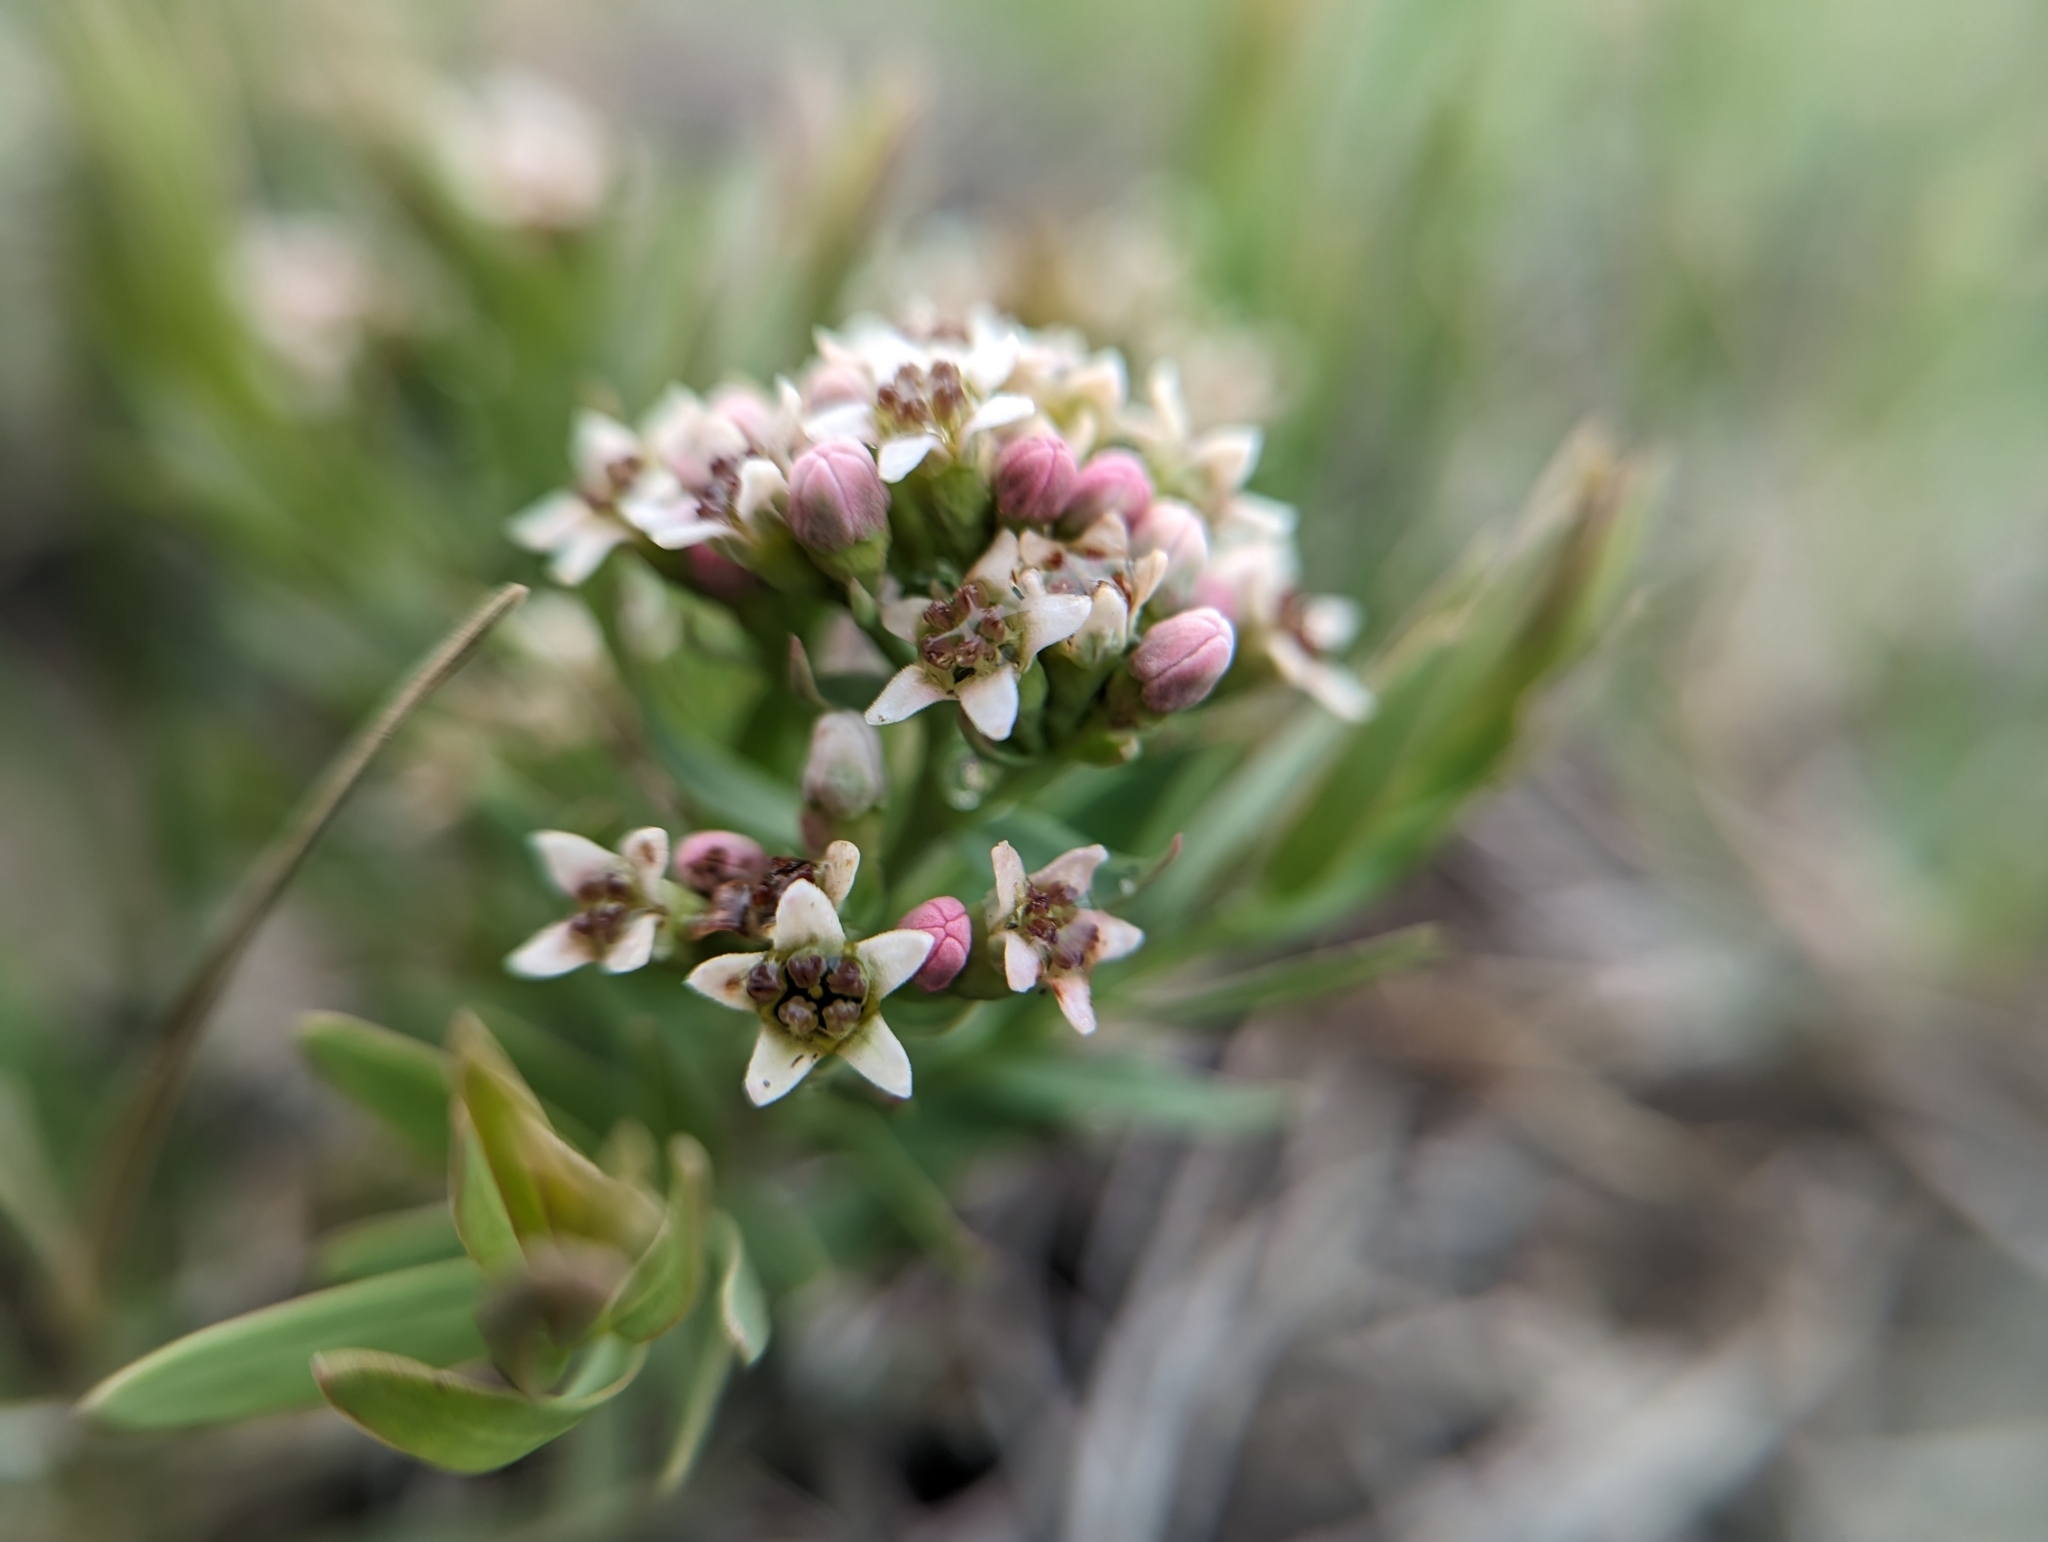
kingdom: Plantae
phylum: Tracheophyta
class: Magnoliopsida
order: Santalales
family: Comandraceae
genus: Comandra
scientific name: Comandra umbellata
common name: Bastard toadflax
